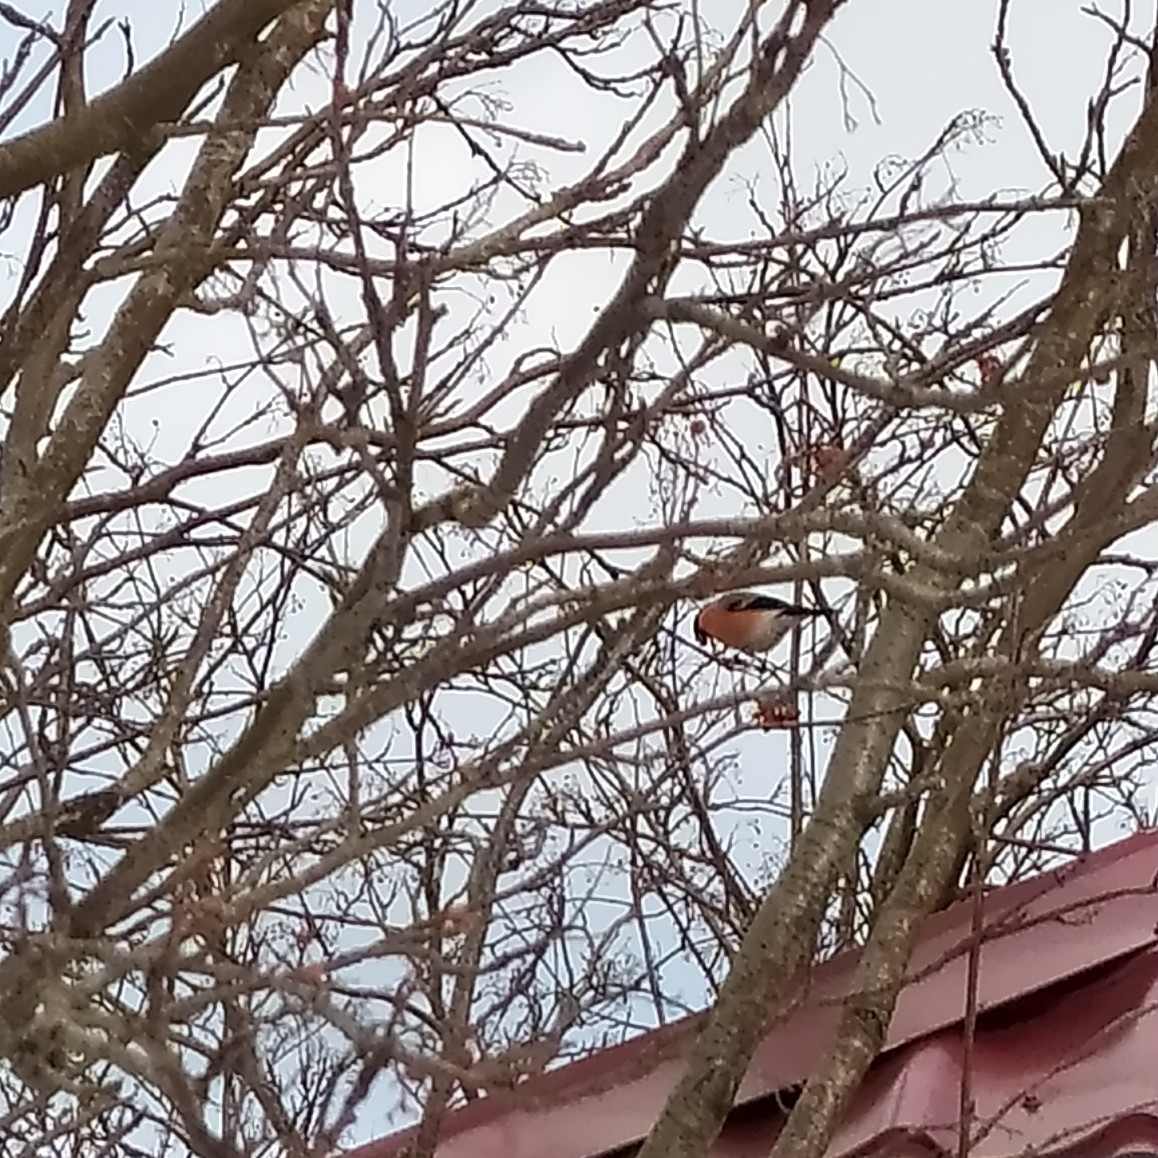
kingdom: Animalia
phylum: Chordata
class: Aves
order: Passeriformes
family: Fringillidae
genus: Pyrrhula
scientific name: Pyrrhula pyrrhula
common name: Eurasian bullfinch
